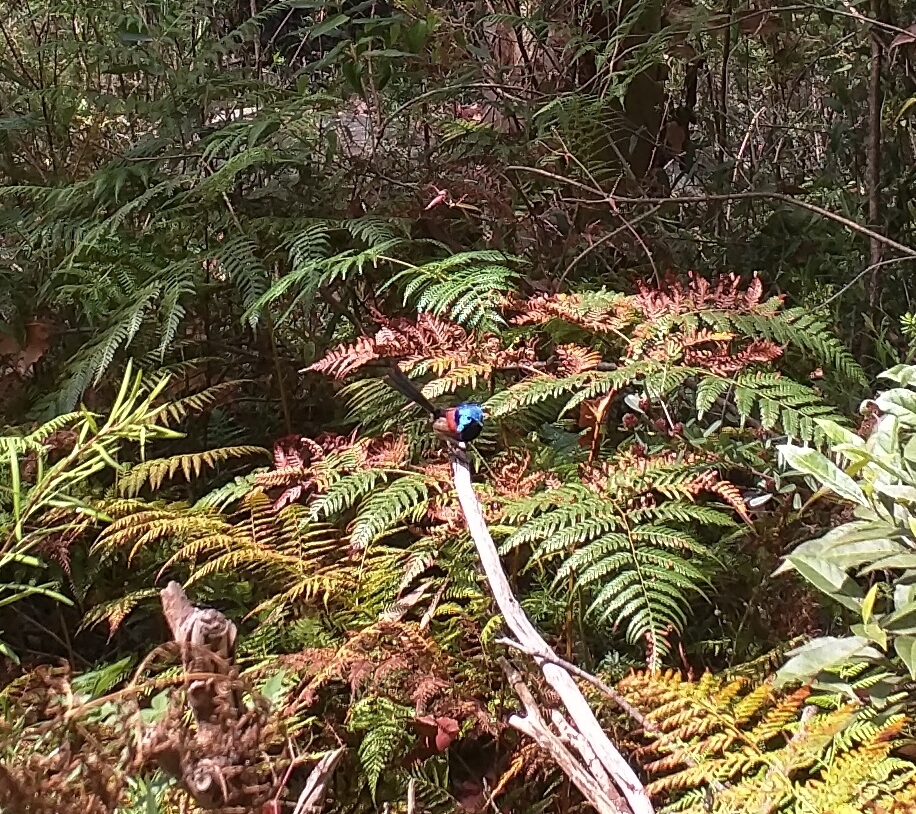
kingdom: Animalia
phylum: Chordata
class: Aves
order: Passeriformes
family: Maluridae
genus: Malurus
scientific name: Malurus lamberti
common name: Variegated fairywren
